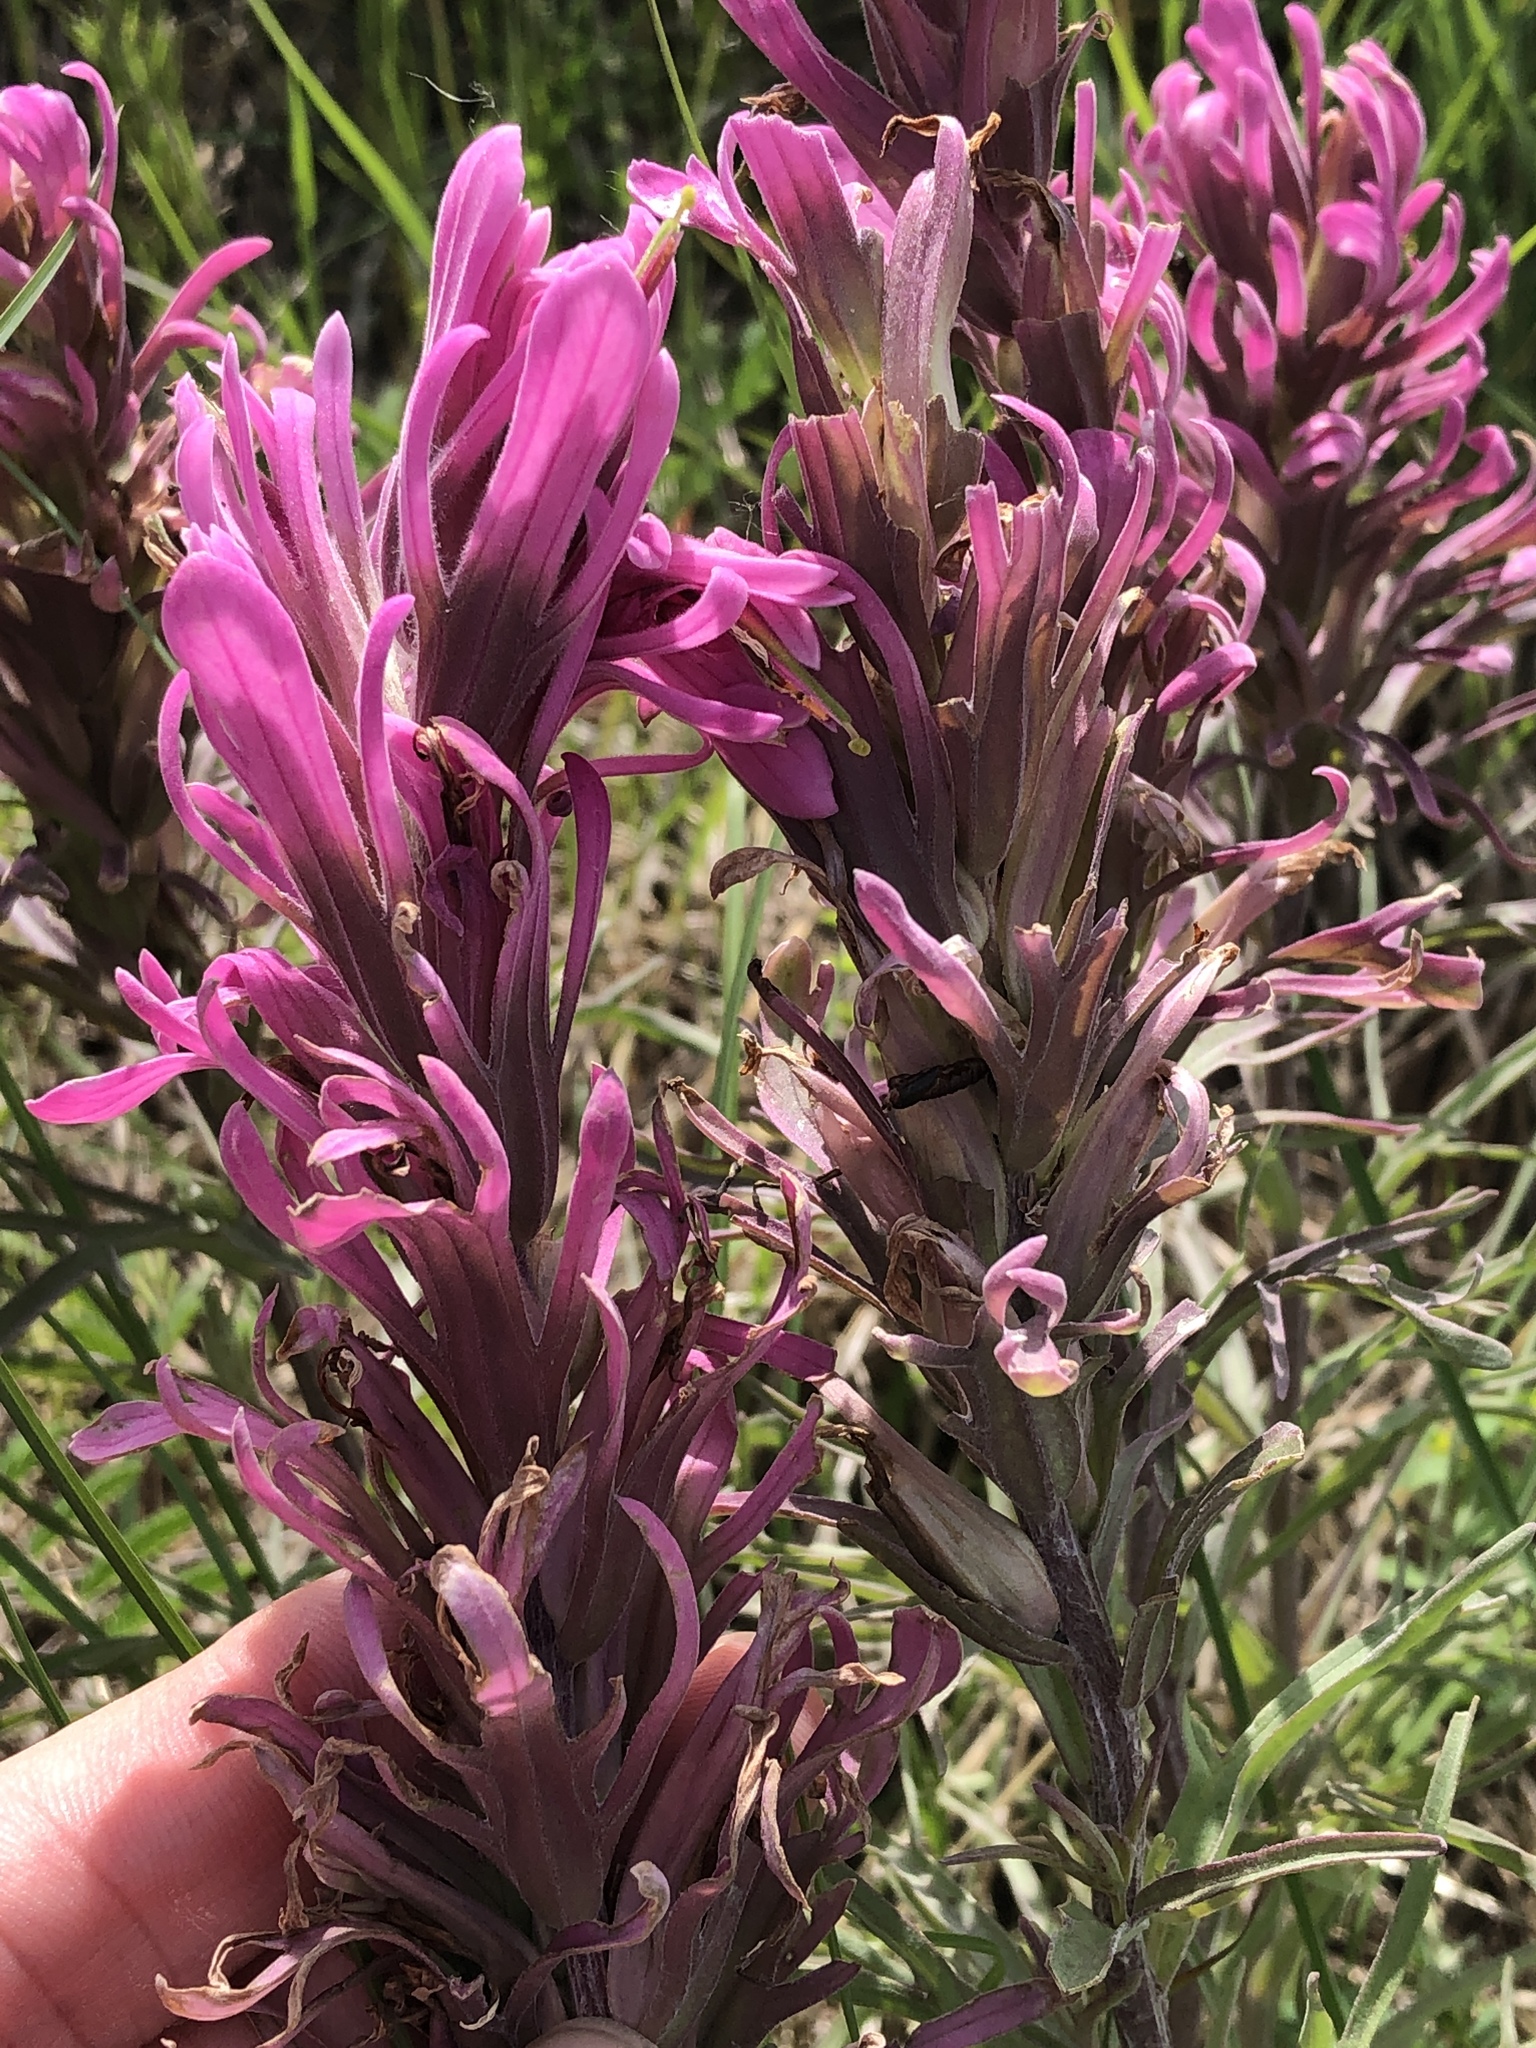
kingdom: Plantae
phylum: Tracheophyta
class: Magnoliopsida
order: Lamiales
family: Orobanchaceae
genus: Castilleja
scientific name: Castilleja purpurea
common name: Plains paintbrush
